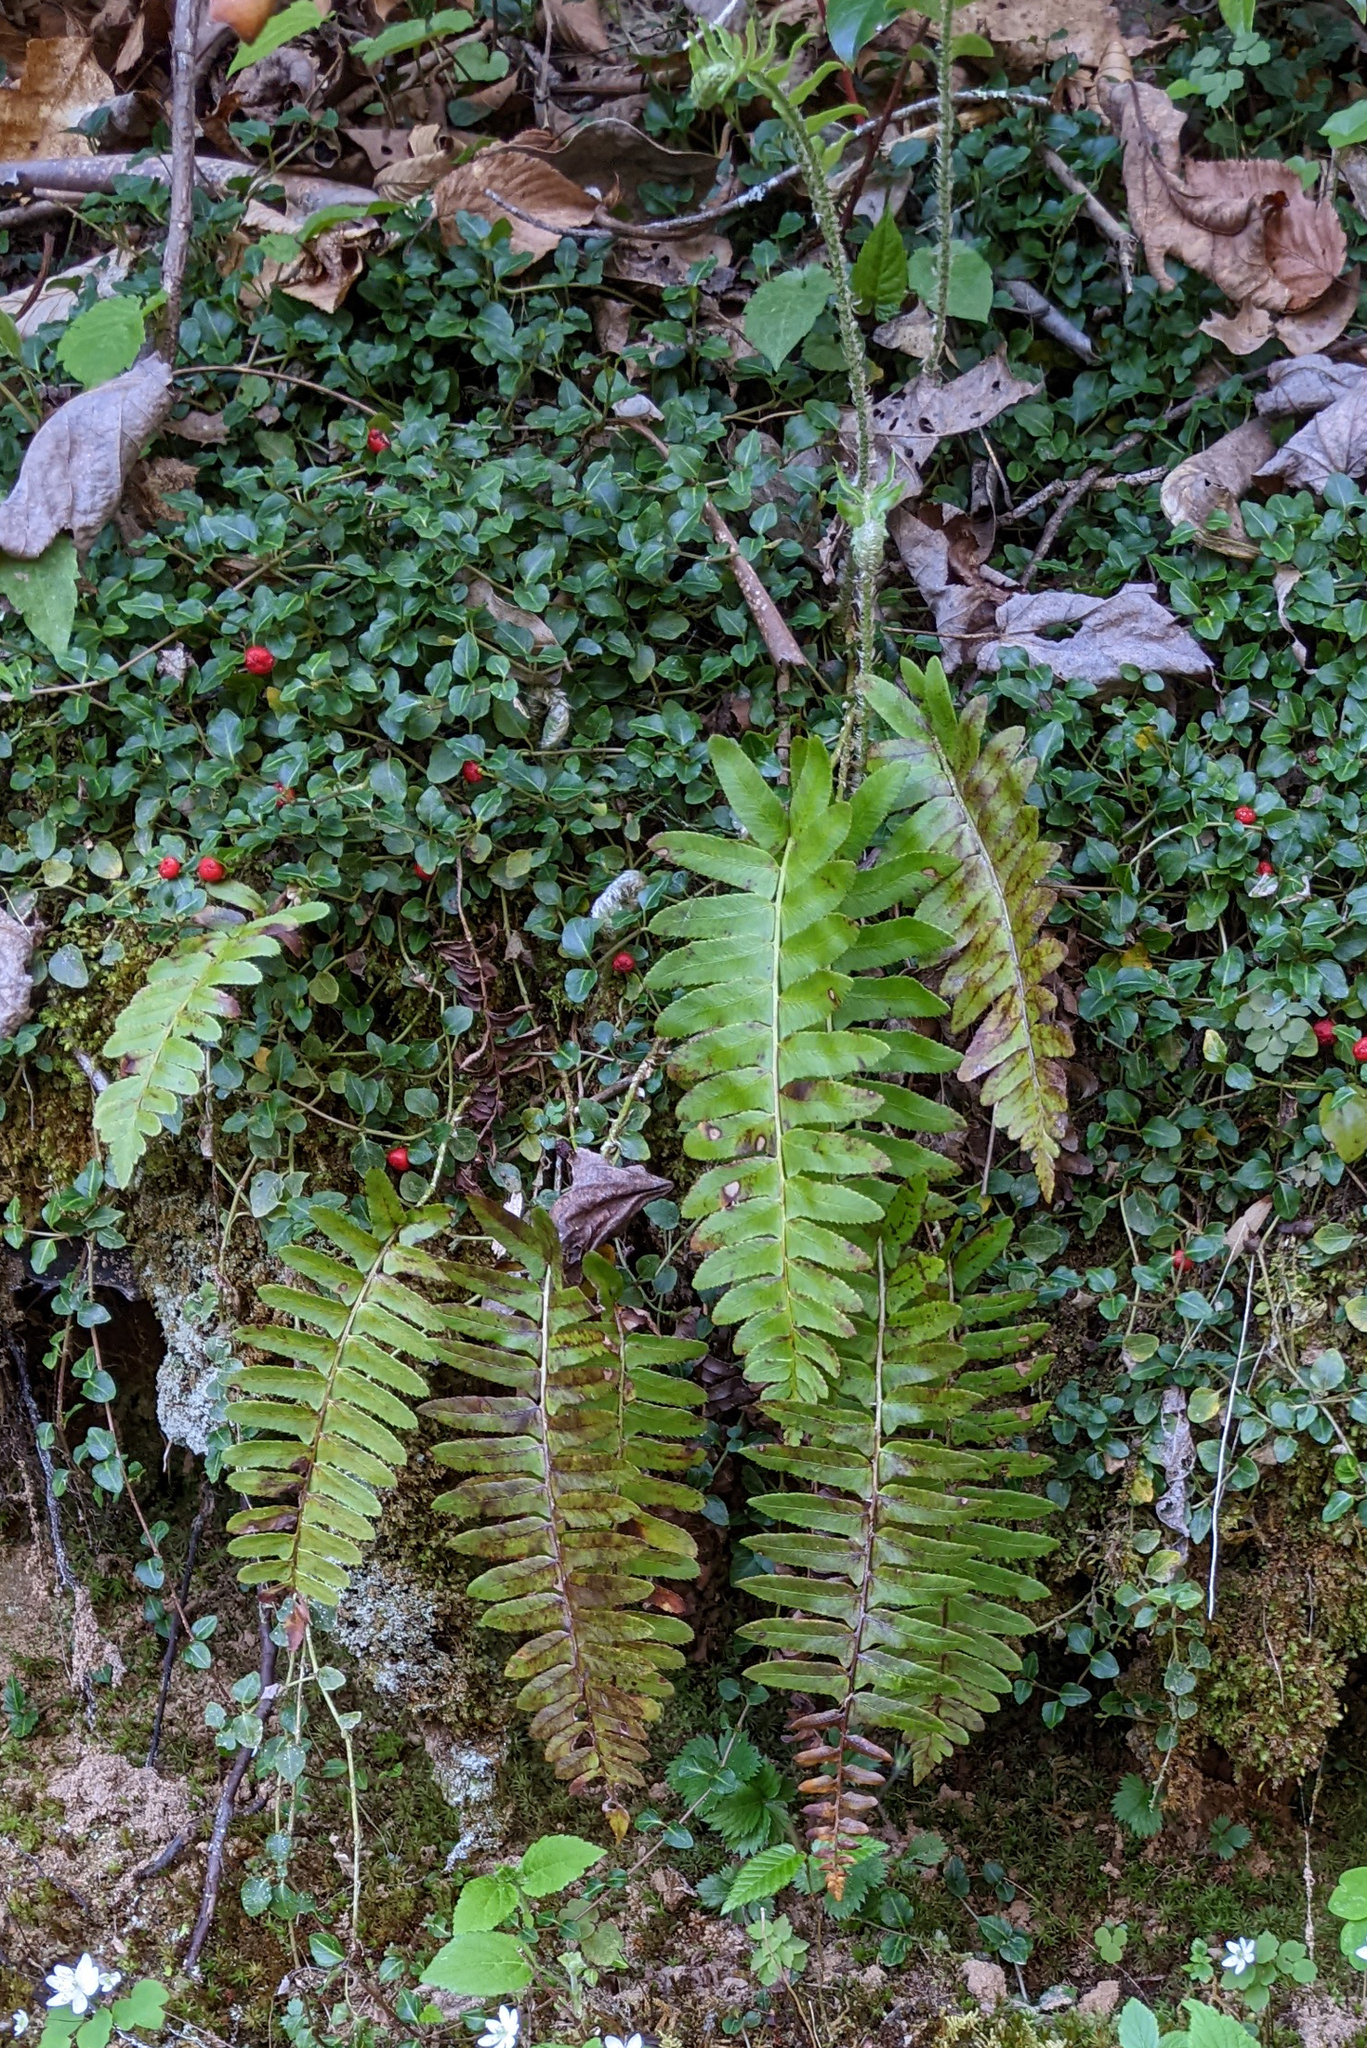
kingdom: Plantae
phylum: Tracheophyta
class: Polypodiopsida
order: Polypodiales
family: Dryopteridaceae
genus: Polystichum
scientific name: Polystichum acrostichoides
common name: Christmas fern
